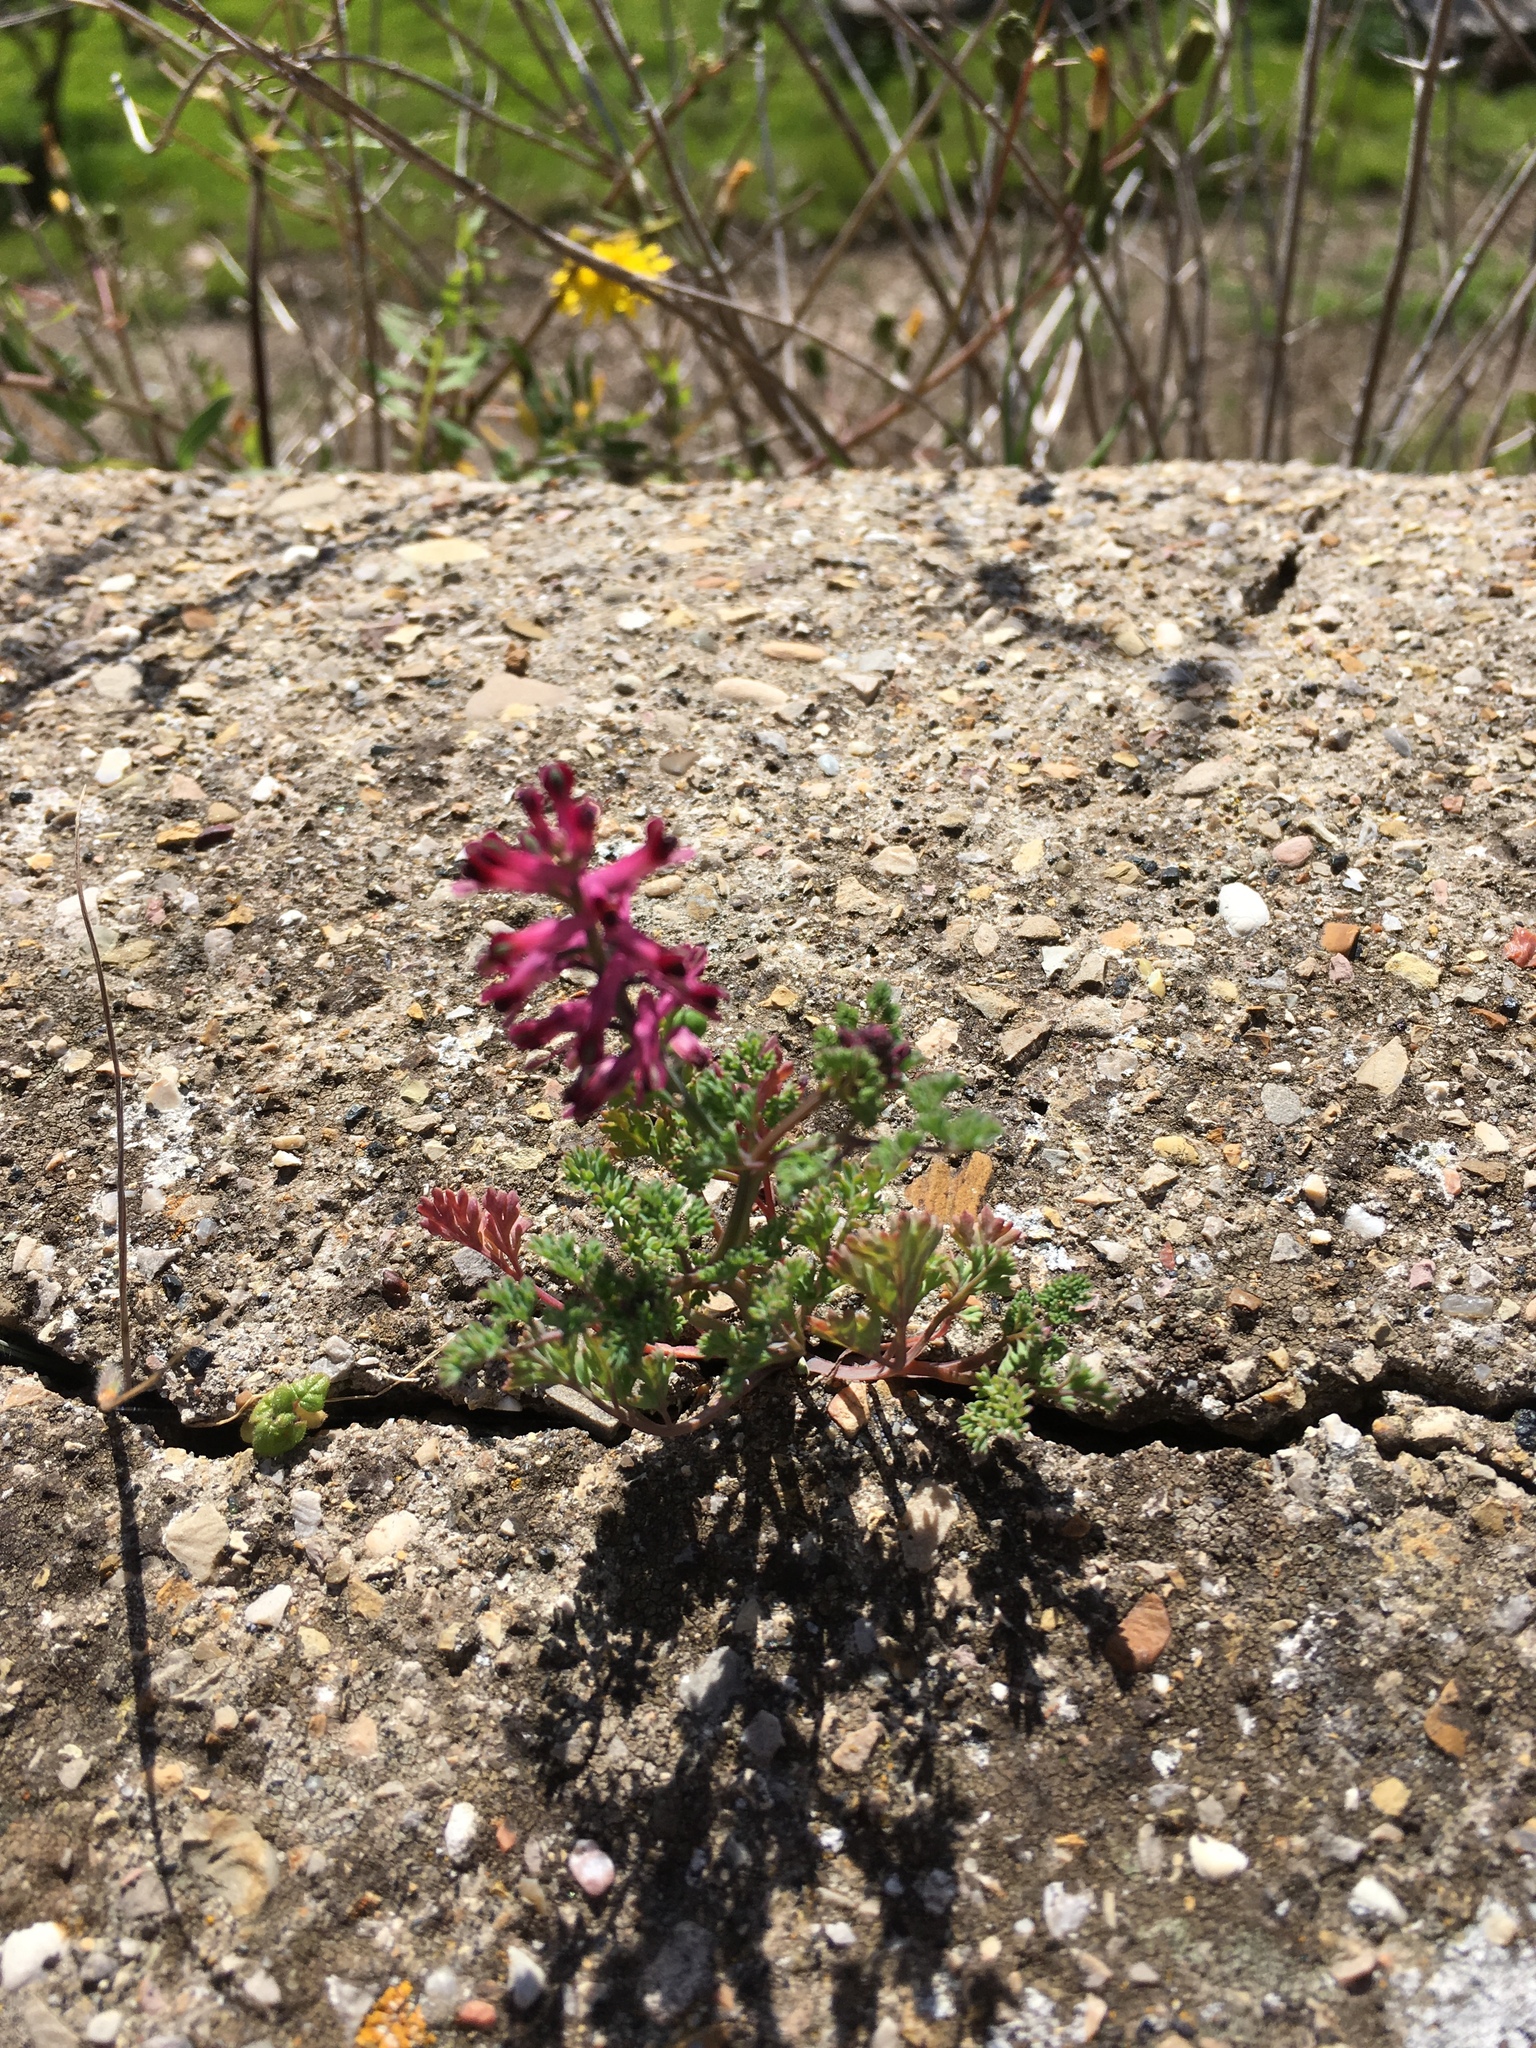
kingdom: Plantae
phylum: Tracheophyta
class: Magnoliopsida
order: Ranunculales
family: Papaveraceae
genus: Fumaria
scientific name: Fumaria officinalis
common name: Common fumitory
